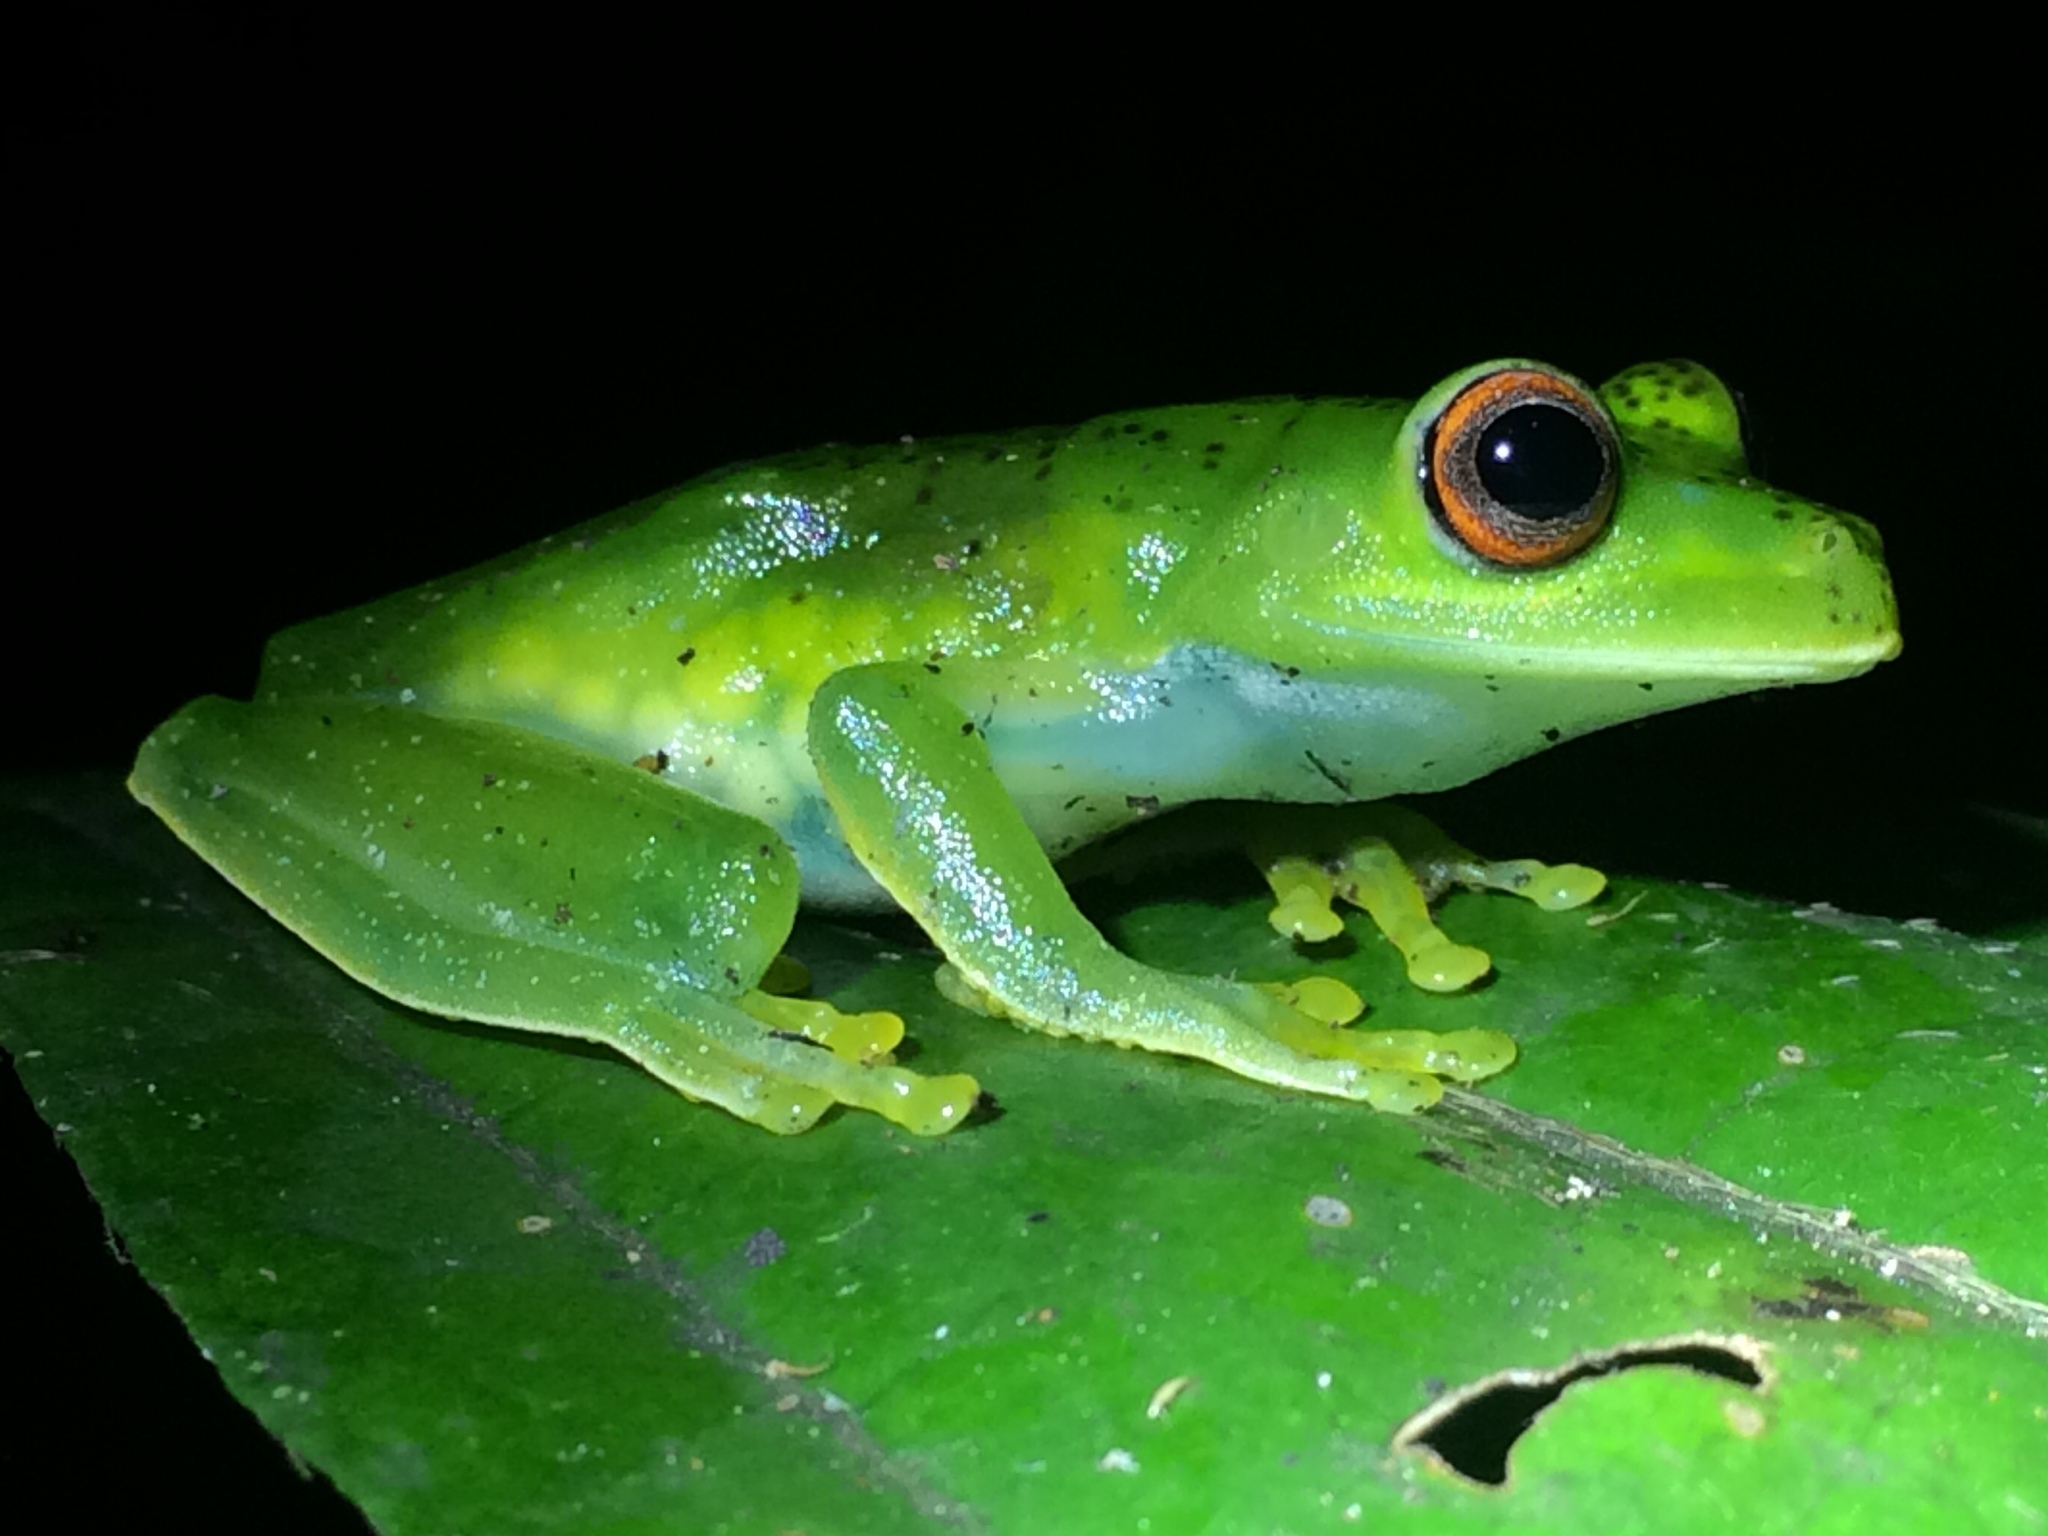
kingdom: Animalia
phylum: Chordata
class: Amphibia
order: Anura
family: Hylidae
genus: Aplastodiscus
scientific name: Aplastodiscus sibilatus
